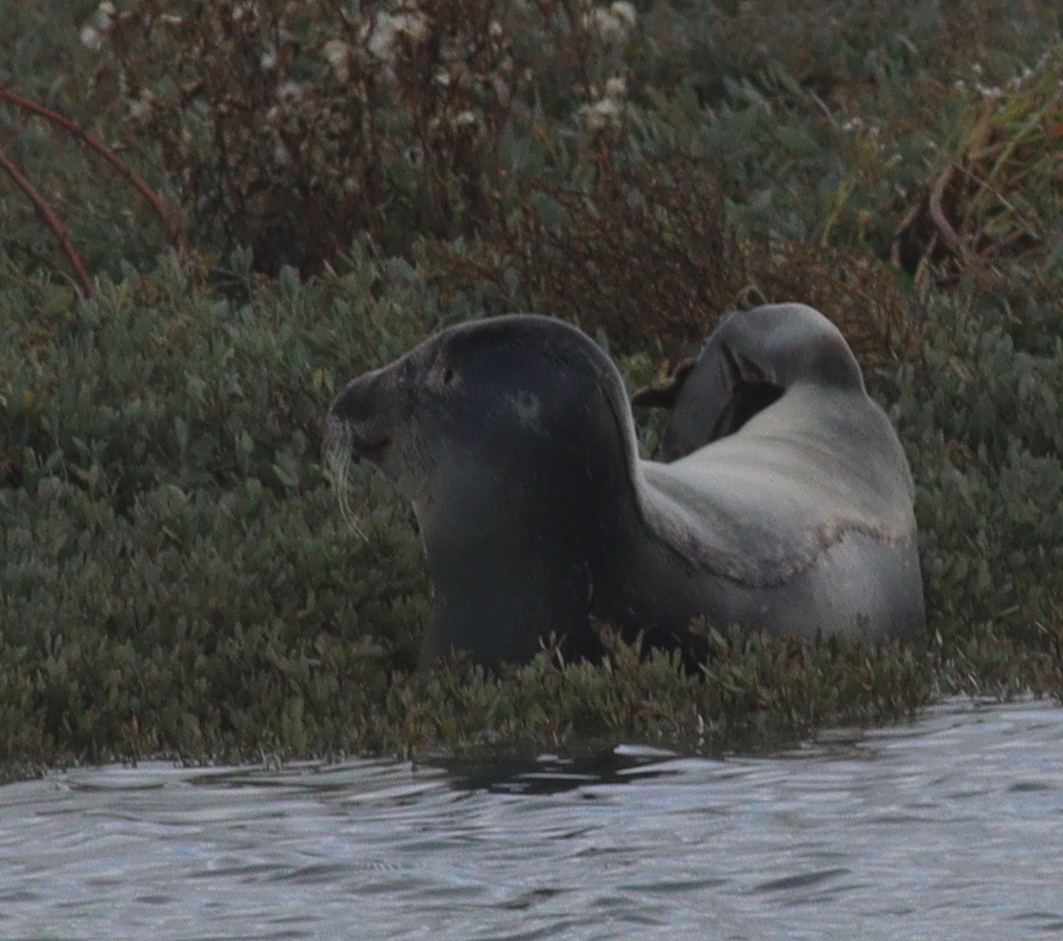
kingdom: Animalia
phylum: Chordata
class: Mammalia
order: Carnivora
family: Phocidae
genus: Phoca
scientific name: Phoca vitulina
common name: Harbor seal
